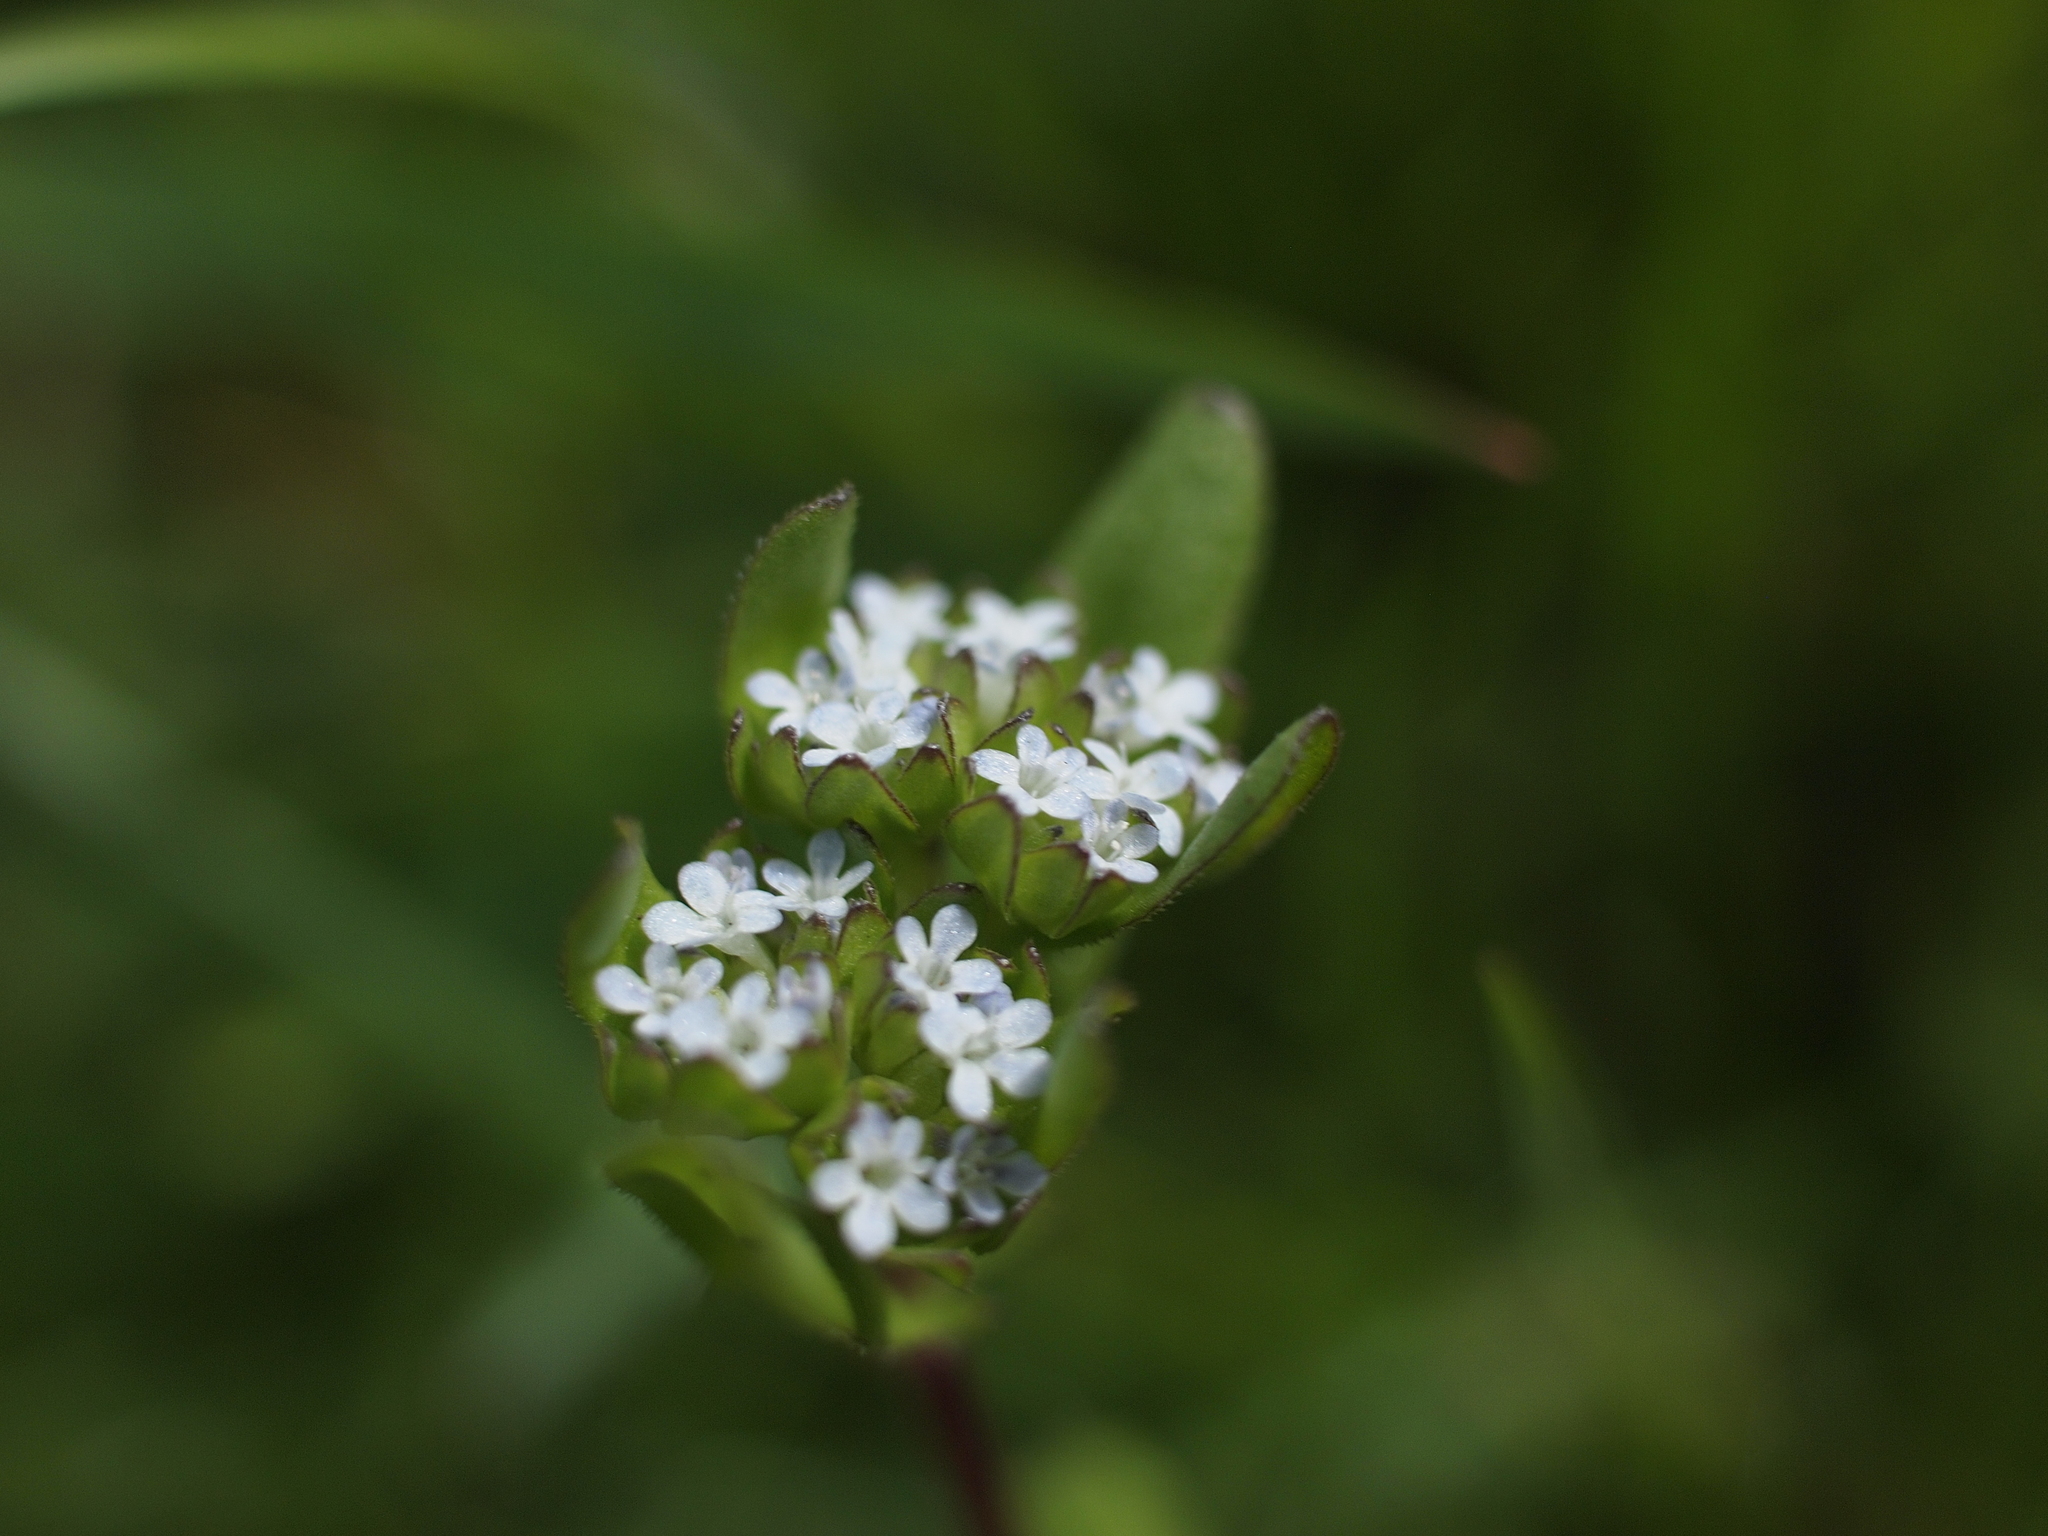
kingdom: Plantae
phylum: Tracheophyta
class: Magnoliopsida
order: Dipsacales
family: Caprifoliaceae
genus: Valerianella
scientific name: Valerianella locusta
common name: Common cornsalad
